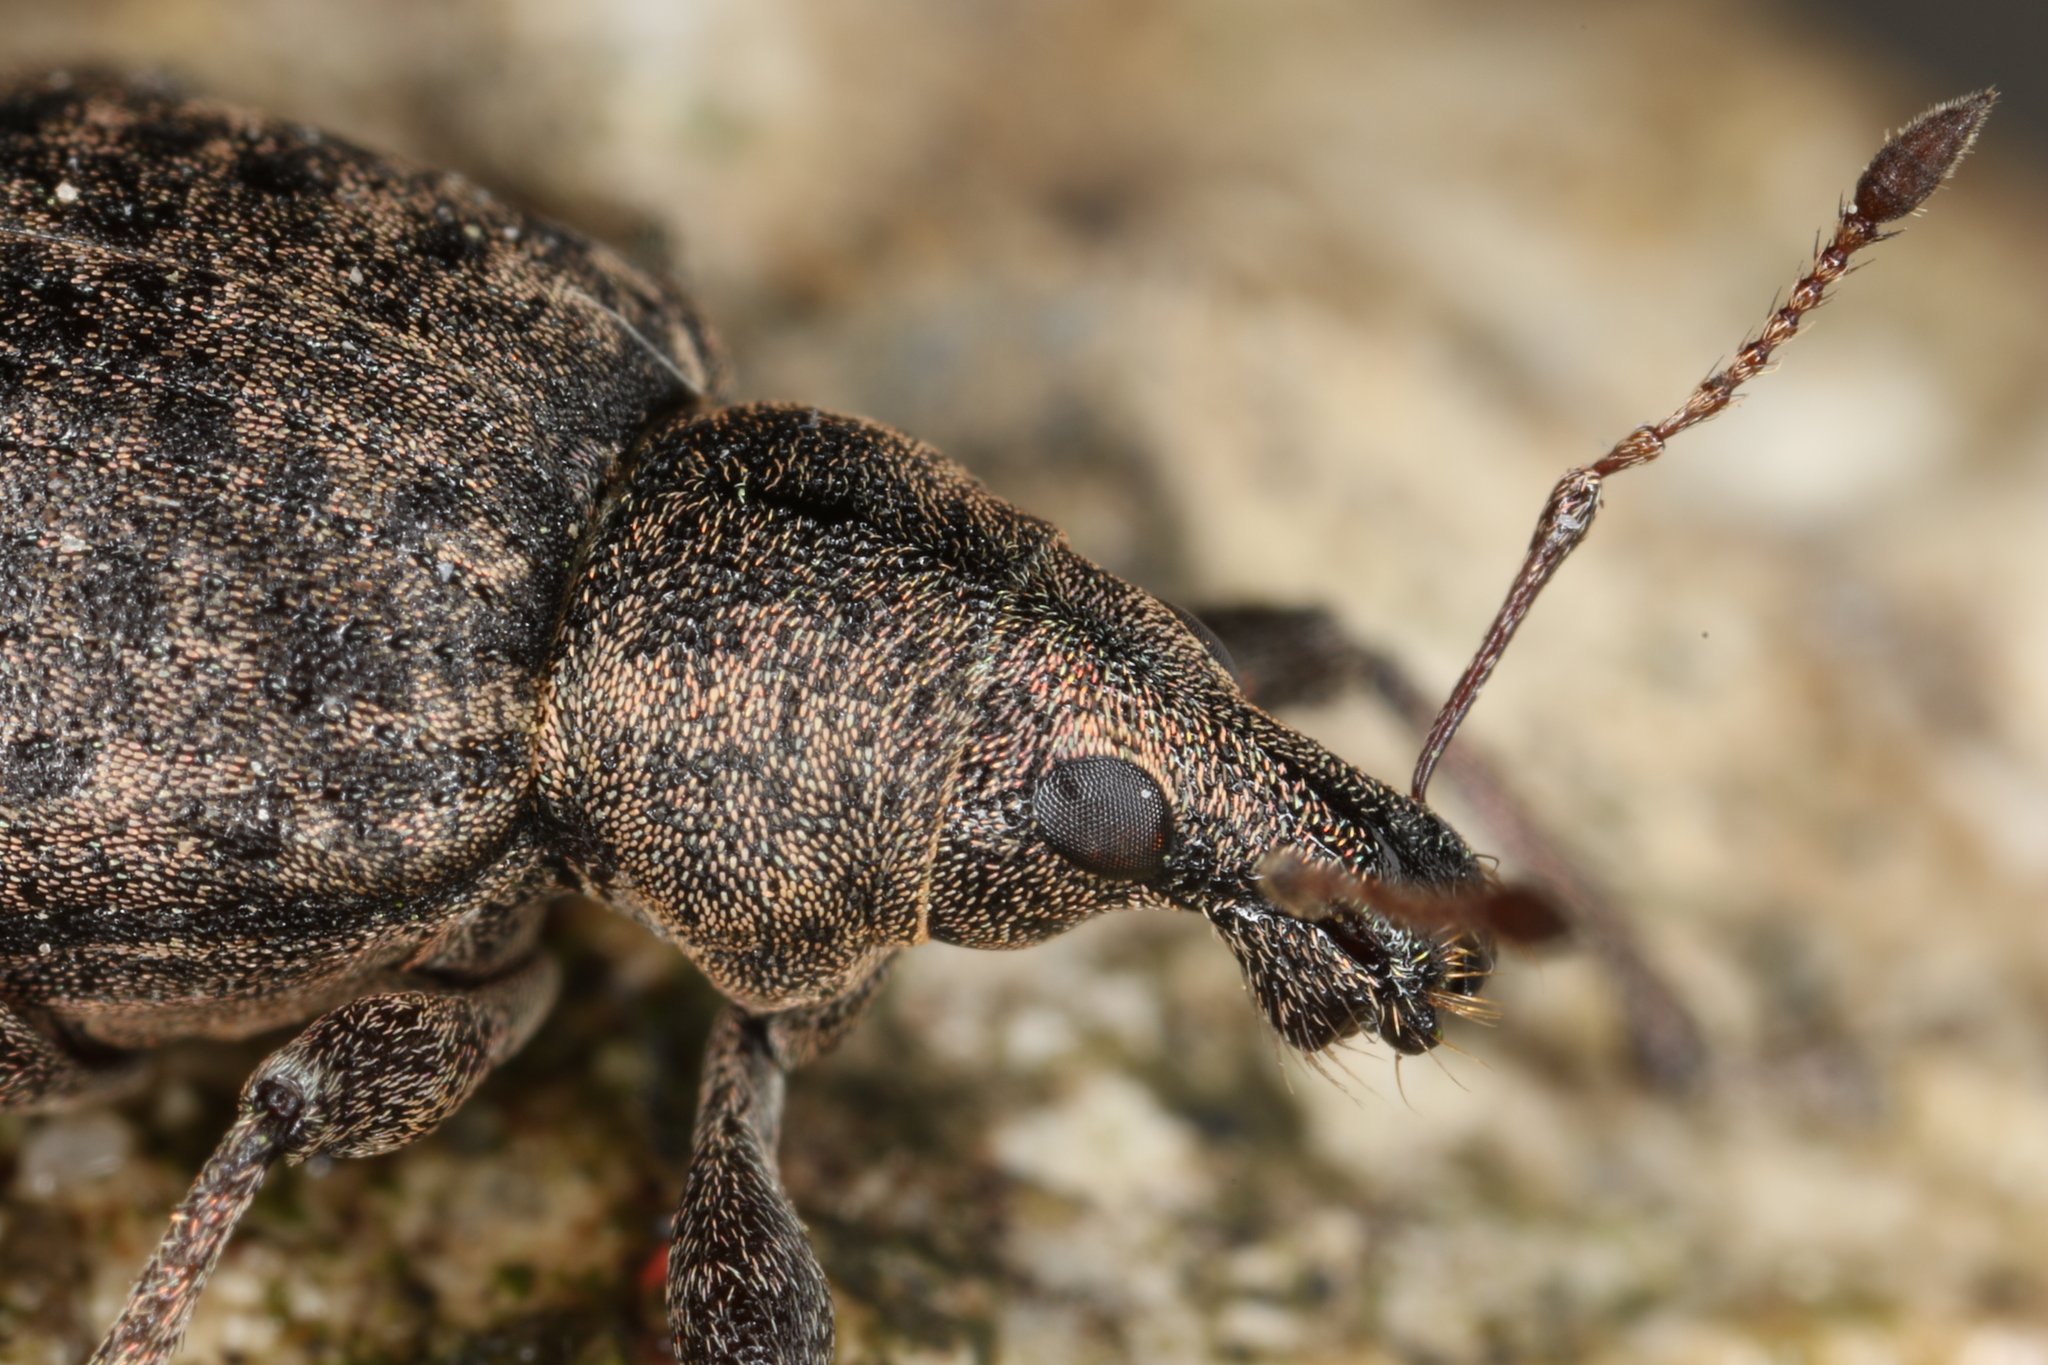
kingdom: Animalia
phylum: Arthropoda
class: Insecta
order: Coleoptera
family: Curculionidae
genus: Liophloeus
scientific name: Liophloeus tessulatus
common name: Weevil
